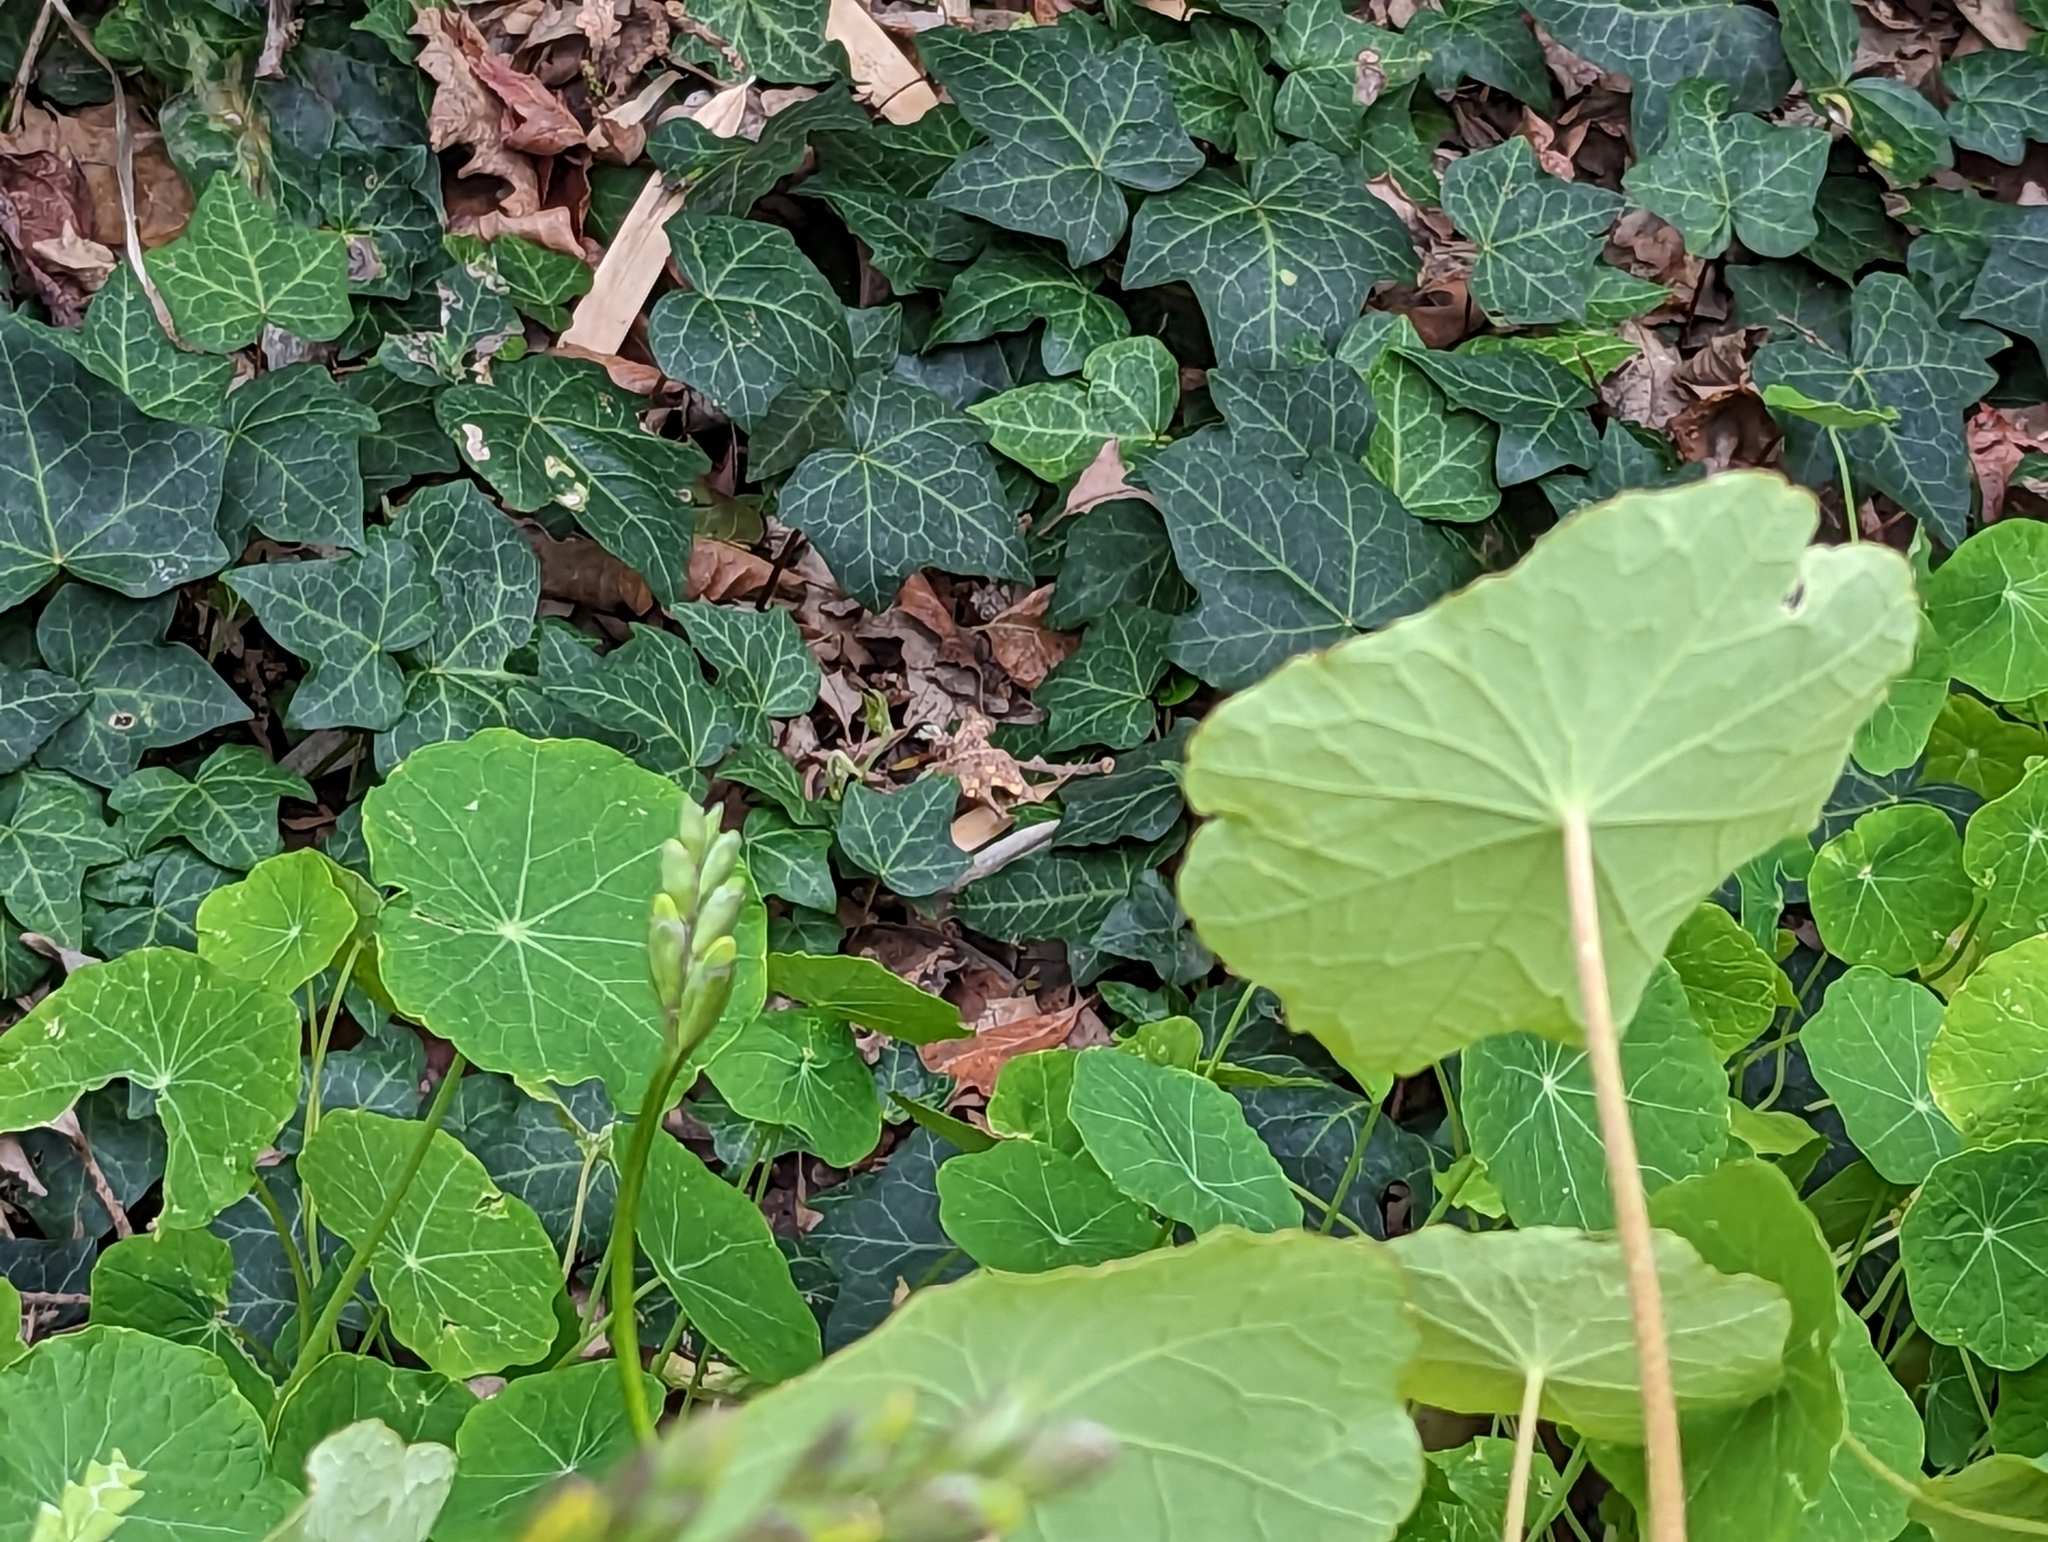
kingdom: Plantae
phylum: Tracheophyta
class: Magnoliopsida
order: Brassicales
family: Tropaeolaceae
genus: Tropaeolum
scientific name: Tropaeolum majus
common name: Nasturtium
